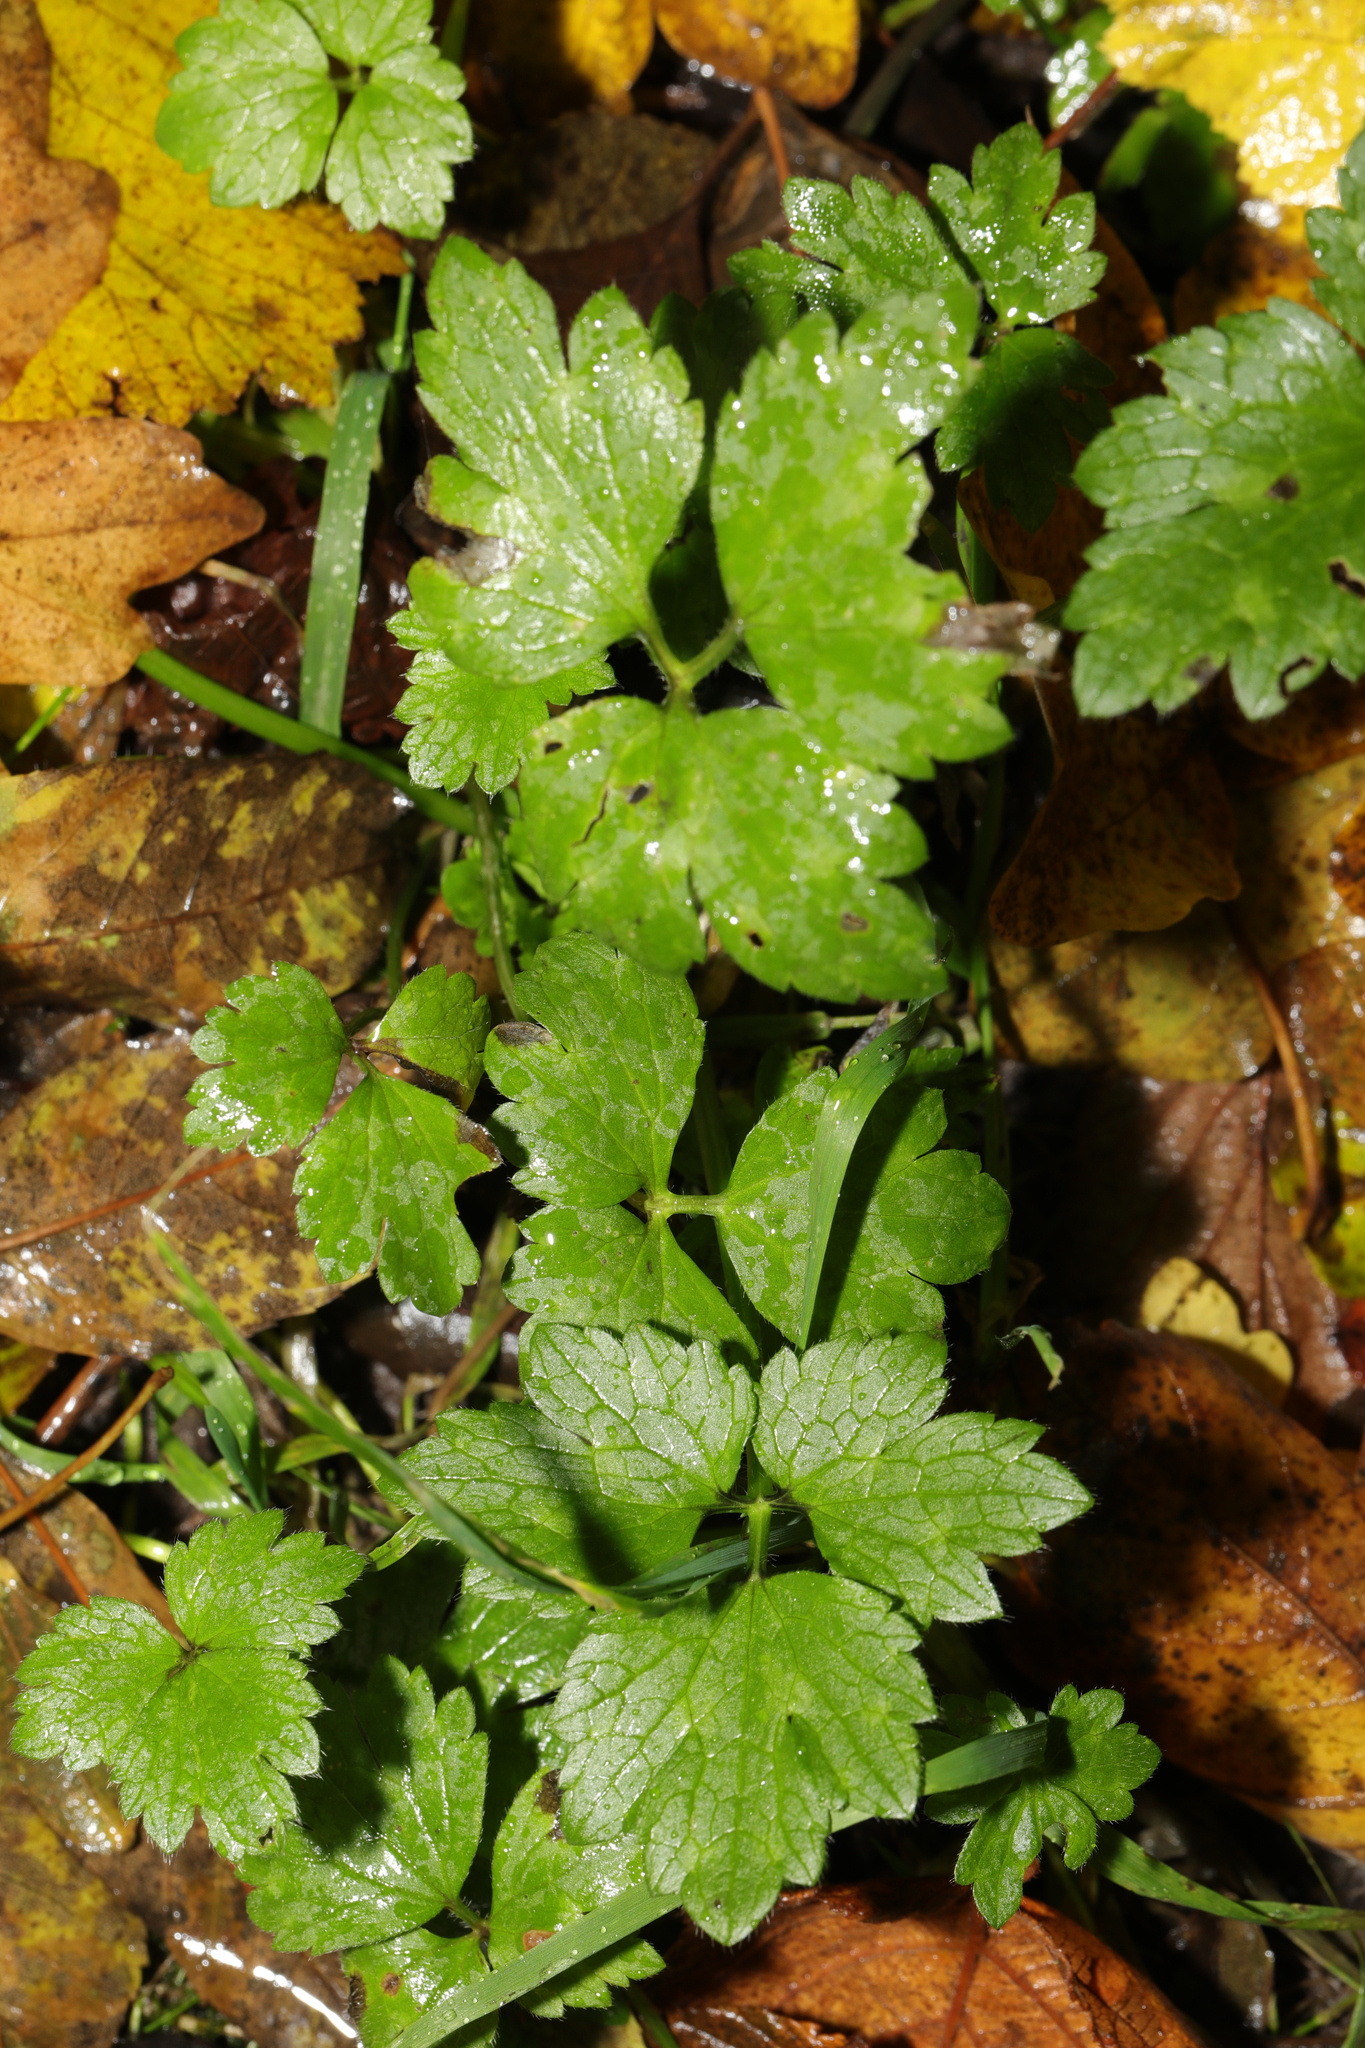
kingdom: Plantae
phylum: Tracheophyta
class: Magnoliopsida
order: Ranunculales
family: Ranunculaceae
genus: Ranunculus
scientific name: Ranunculus repens
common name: Creeping buttercup
